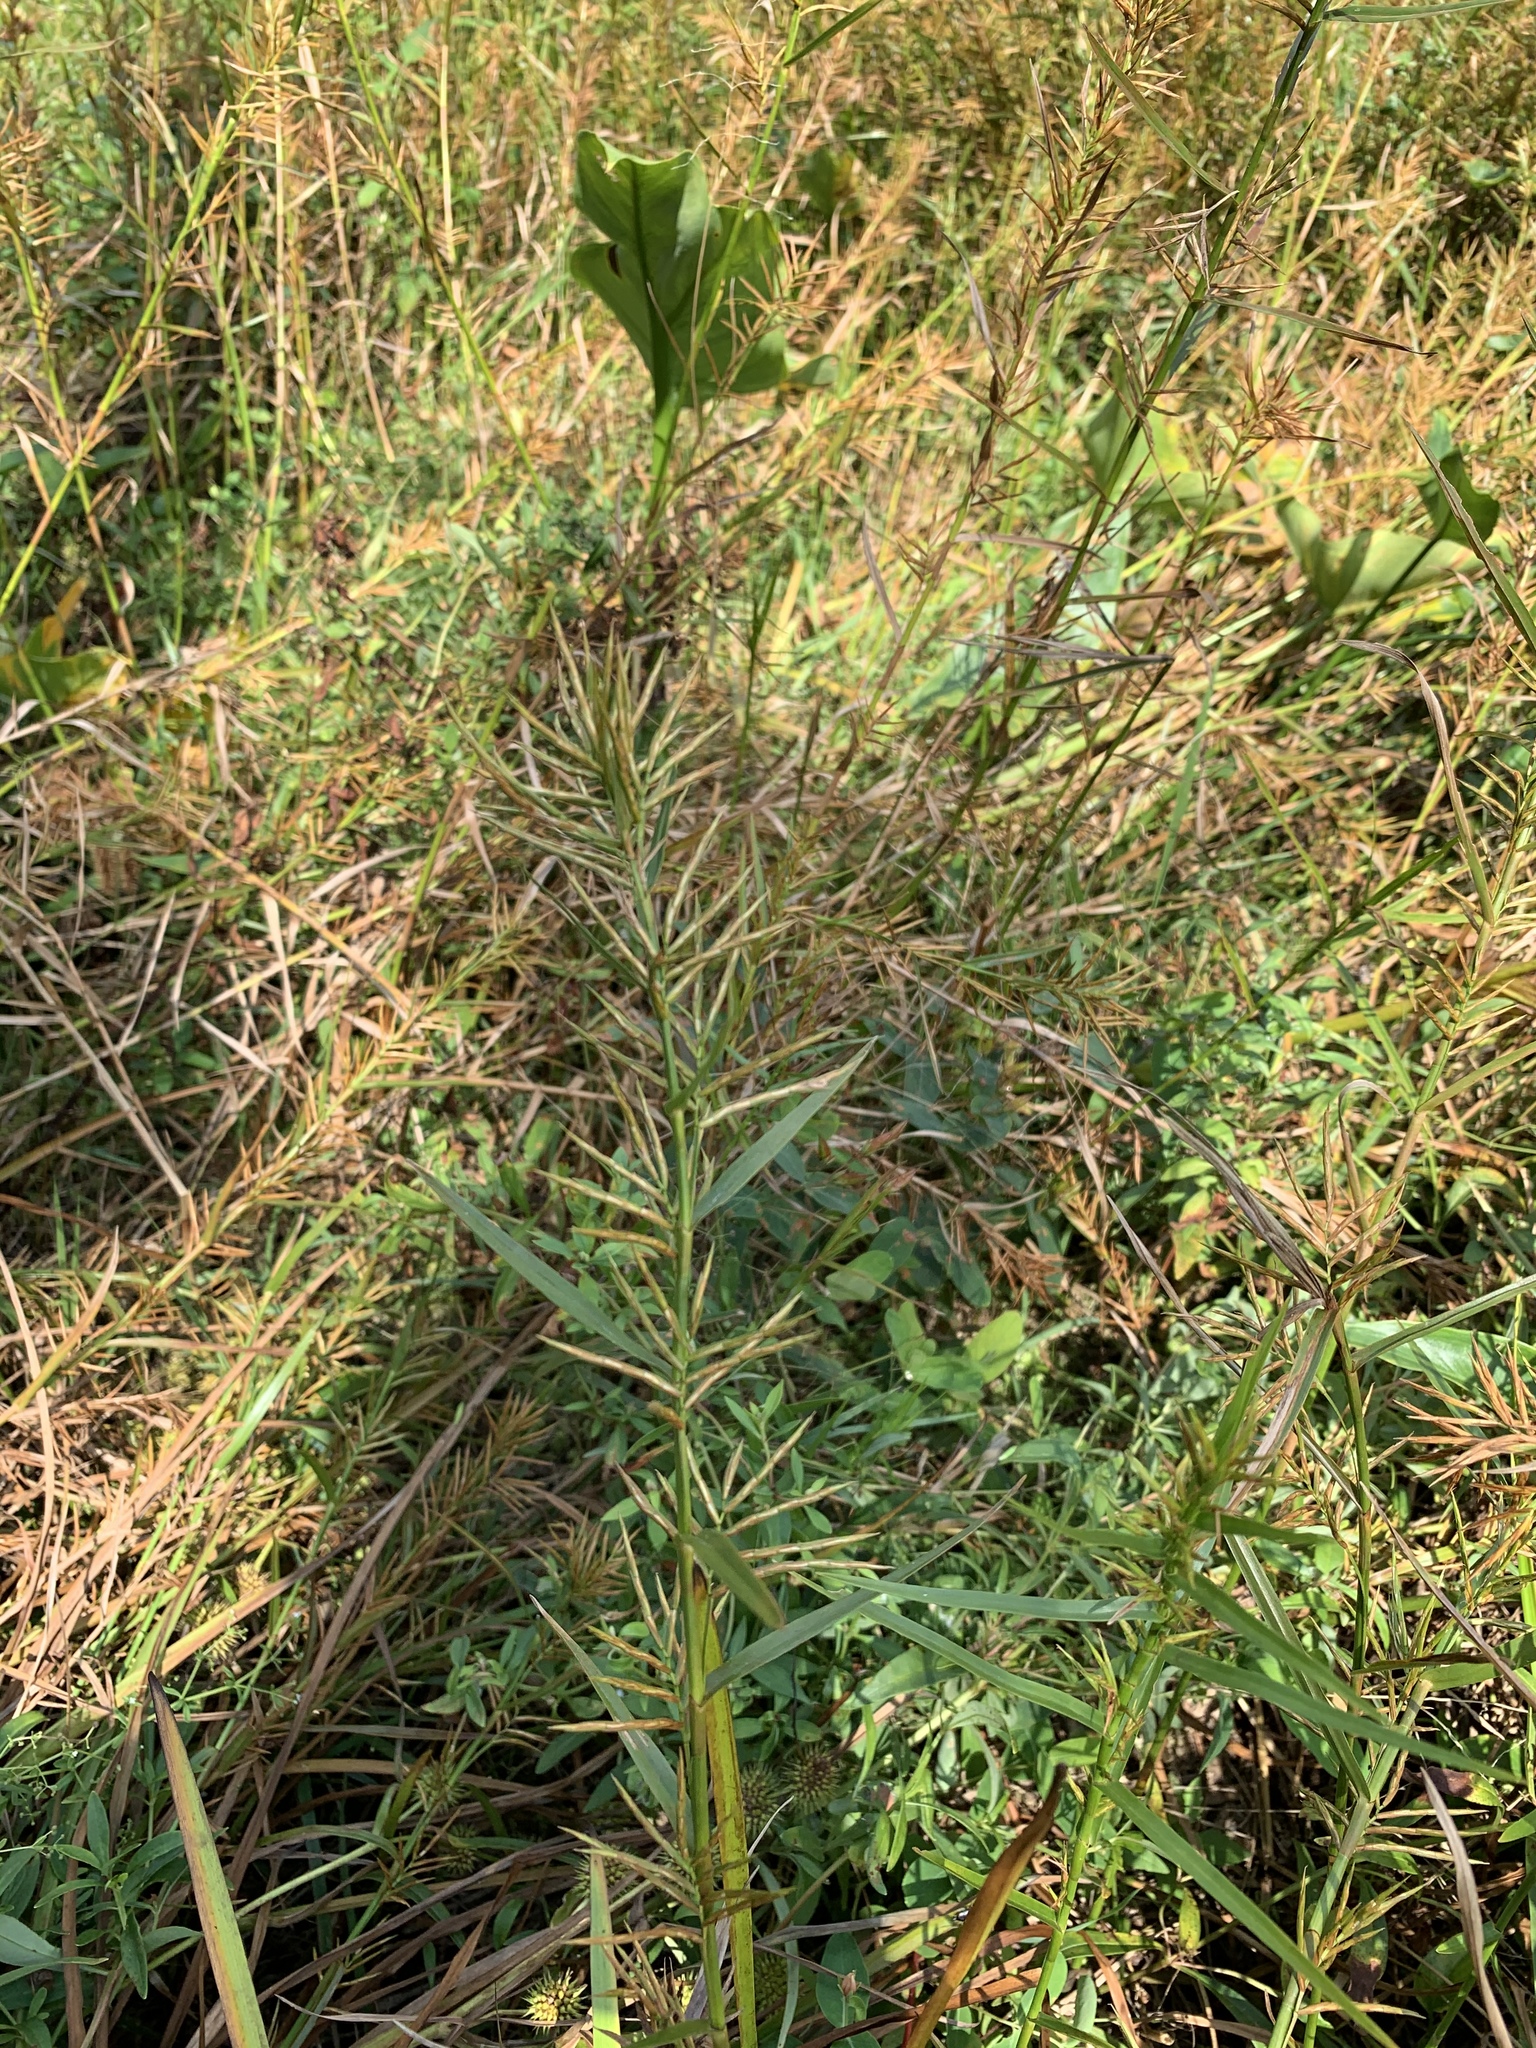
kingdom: Plantae
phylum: Tracheophyta
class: Liliopsida
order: Poales
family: Cyperaceae
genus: Dulichium
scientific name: Dulichium arundinaceum
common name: Three-way sedge
